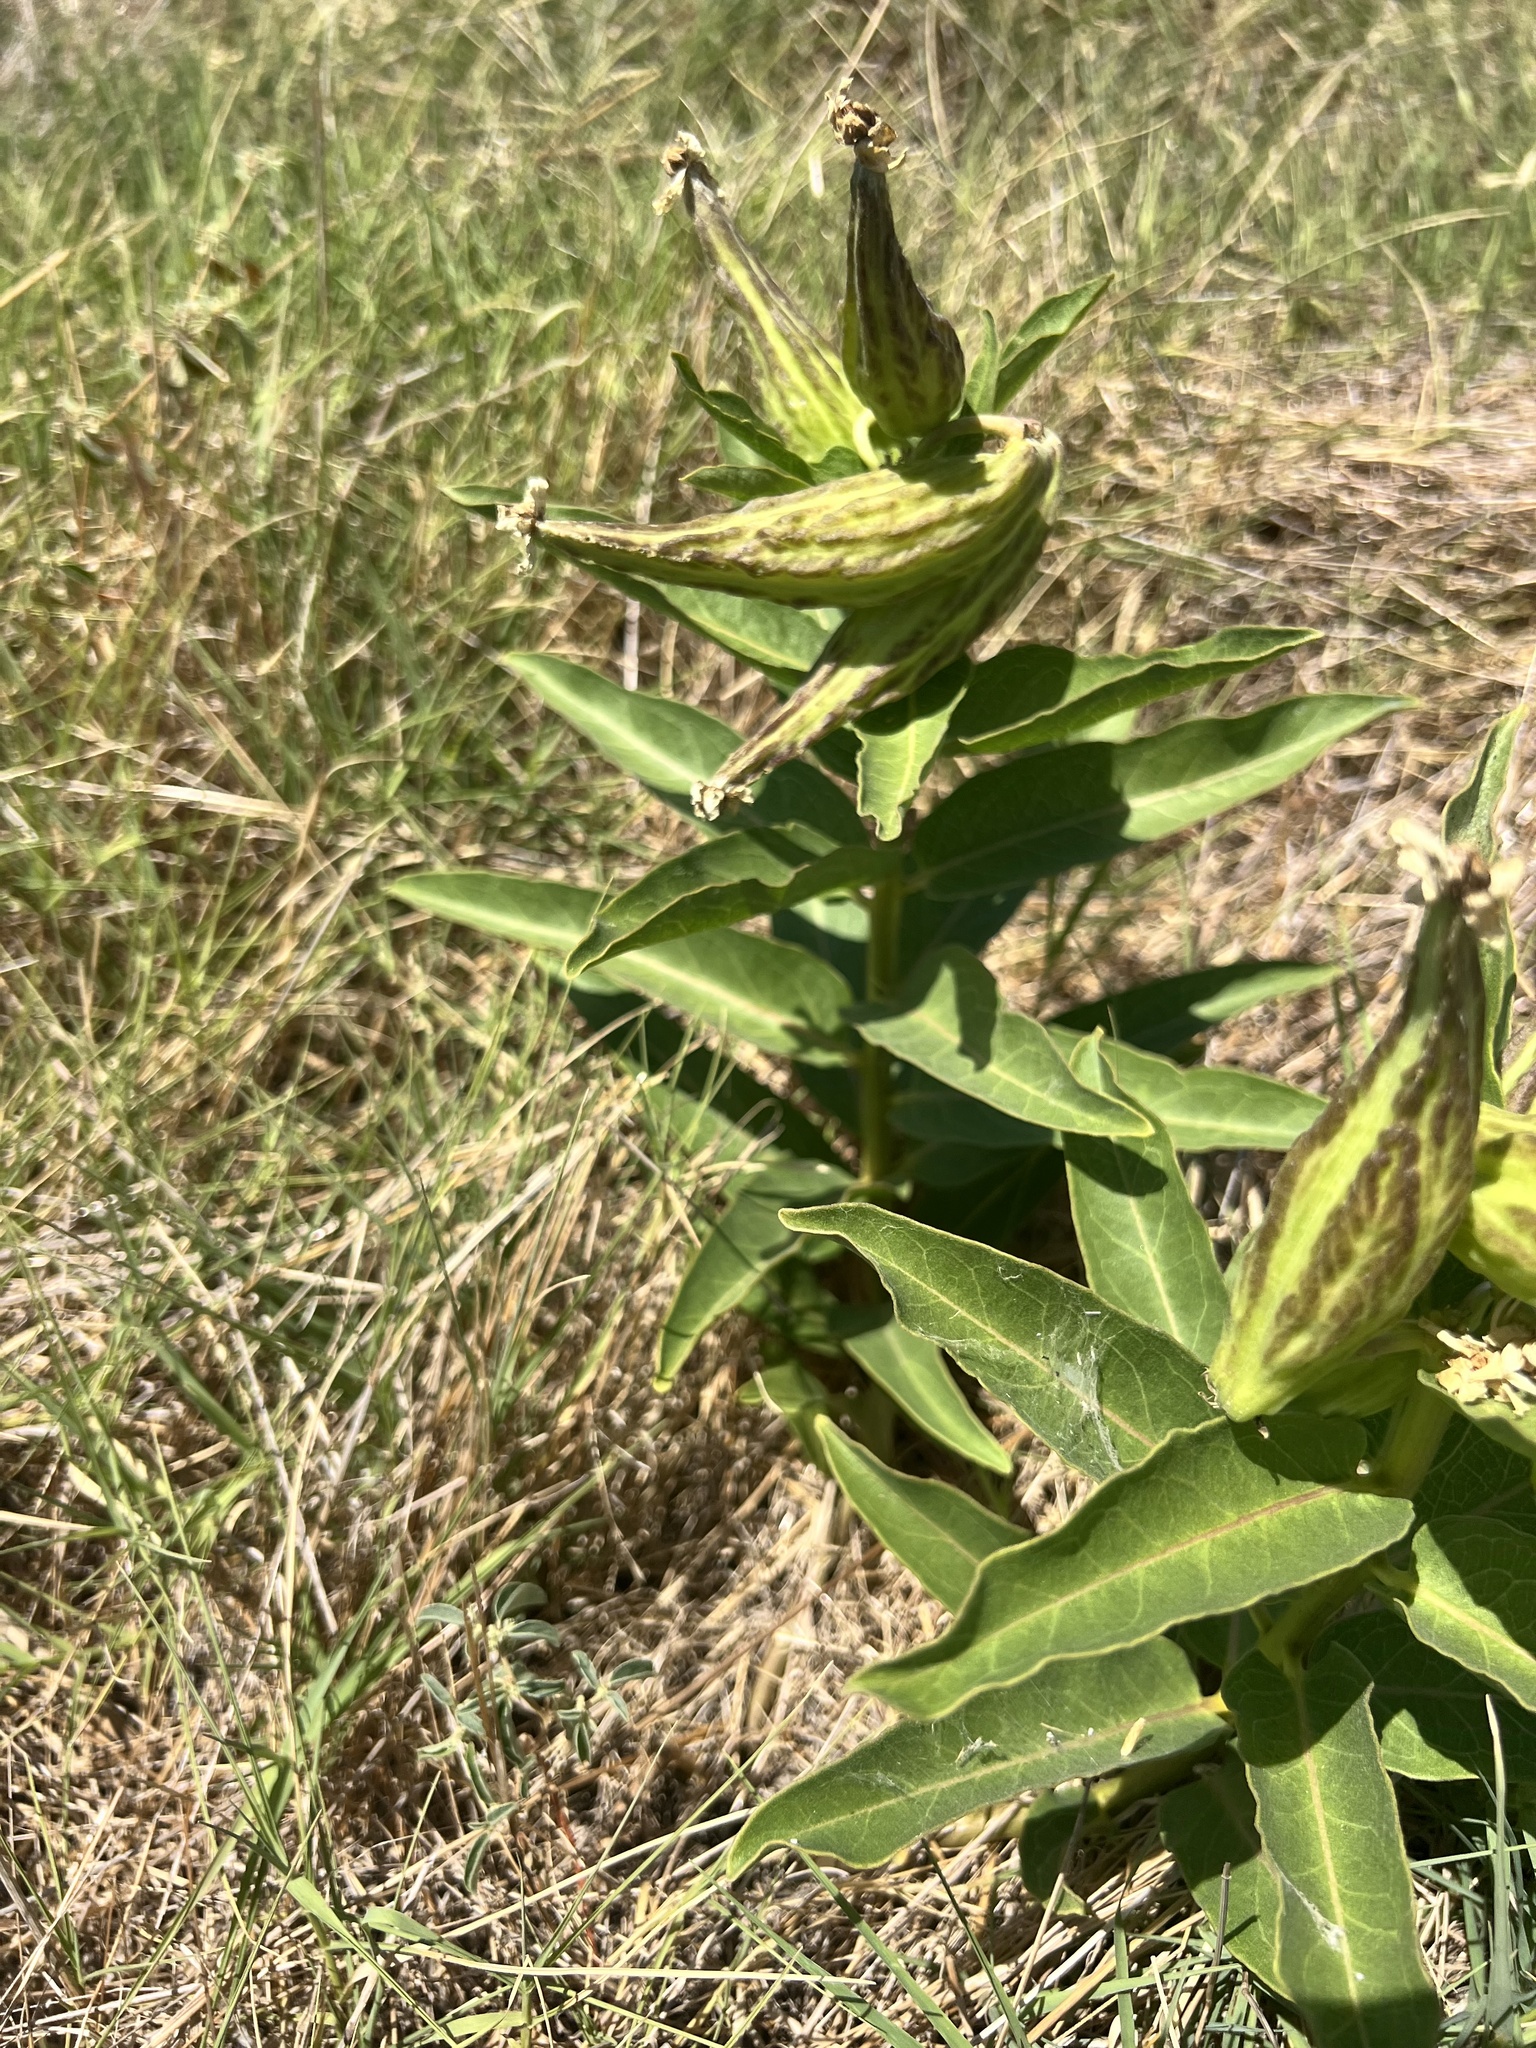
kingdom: Plantae
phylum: Tracheophyta
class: Magnoliopsida
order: Gentianales
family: Apocynaceae
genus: Asclepias
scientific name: Asclepias viridis
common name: Antelope-horns
